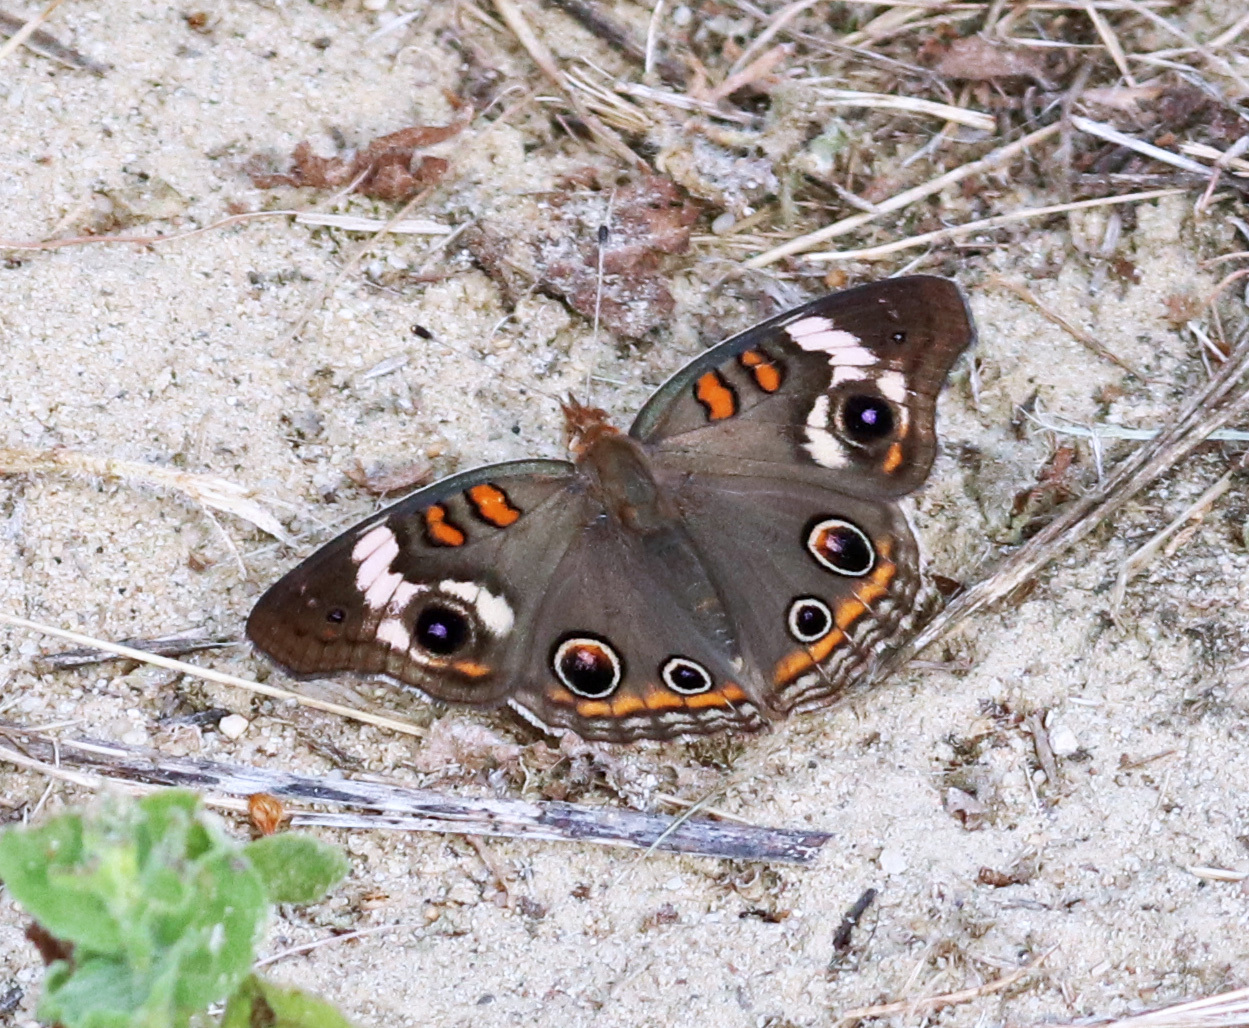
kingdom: Animalia
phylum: Arthropoda
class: Insecta
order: Lepidoptera
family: Nymphalidae
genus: Junonia
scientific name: Junonia coenia
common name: Common buckeye
